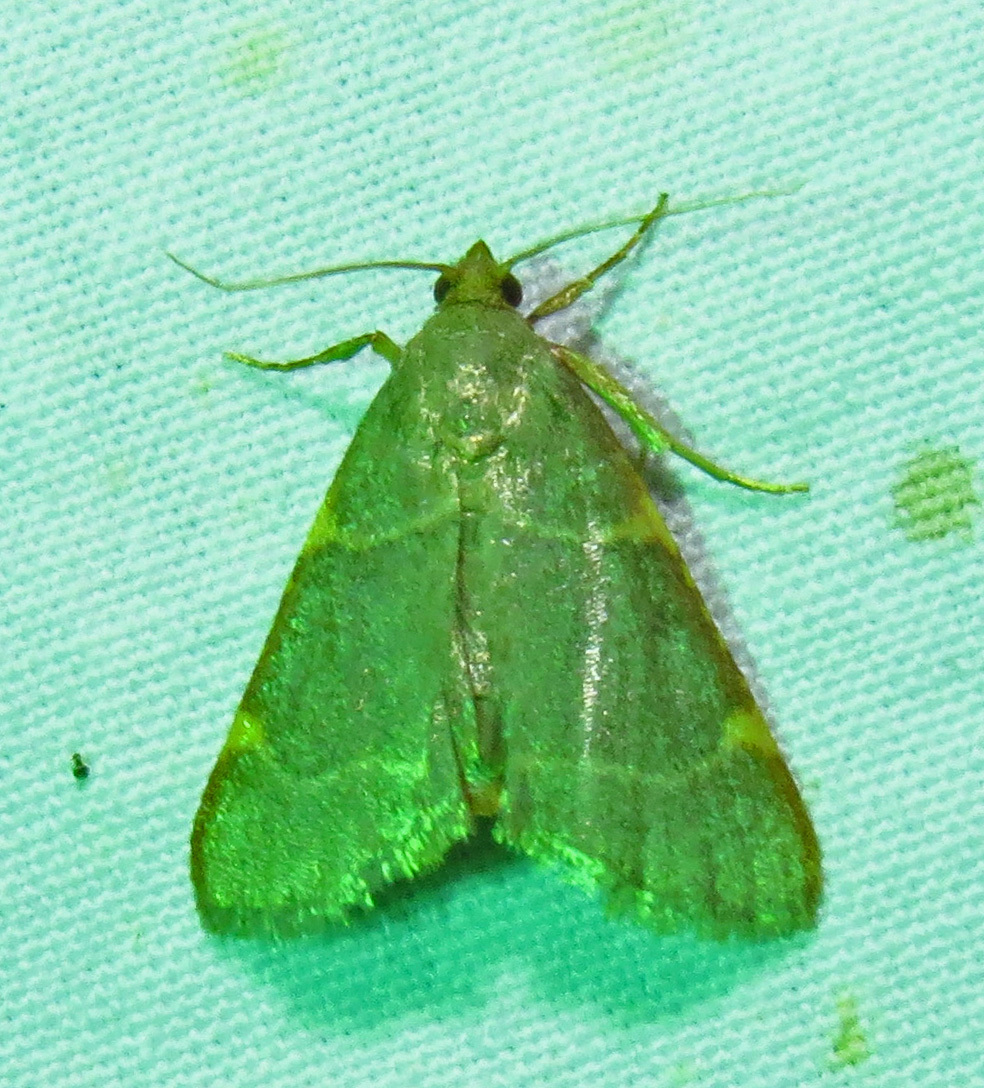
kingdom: Animalia
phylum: Arthropoda
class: Insecta
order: Lepidoptera
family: Pyralidae
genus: Hypsopygia
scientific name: Hypsopygia binodulalis
